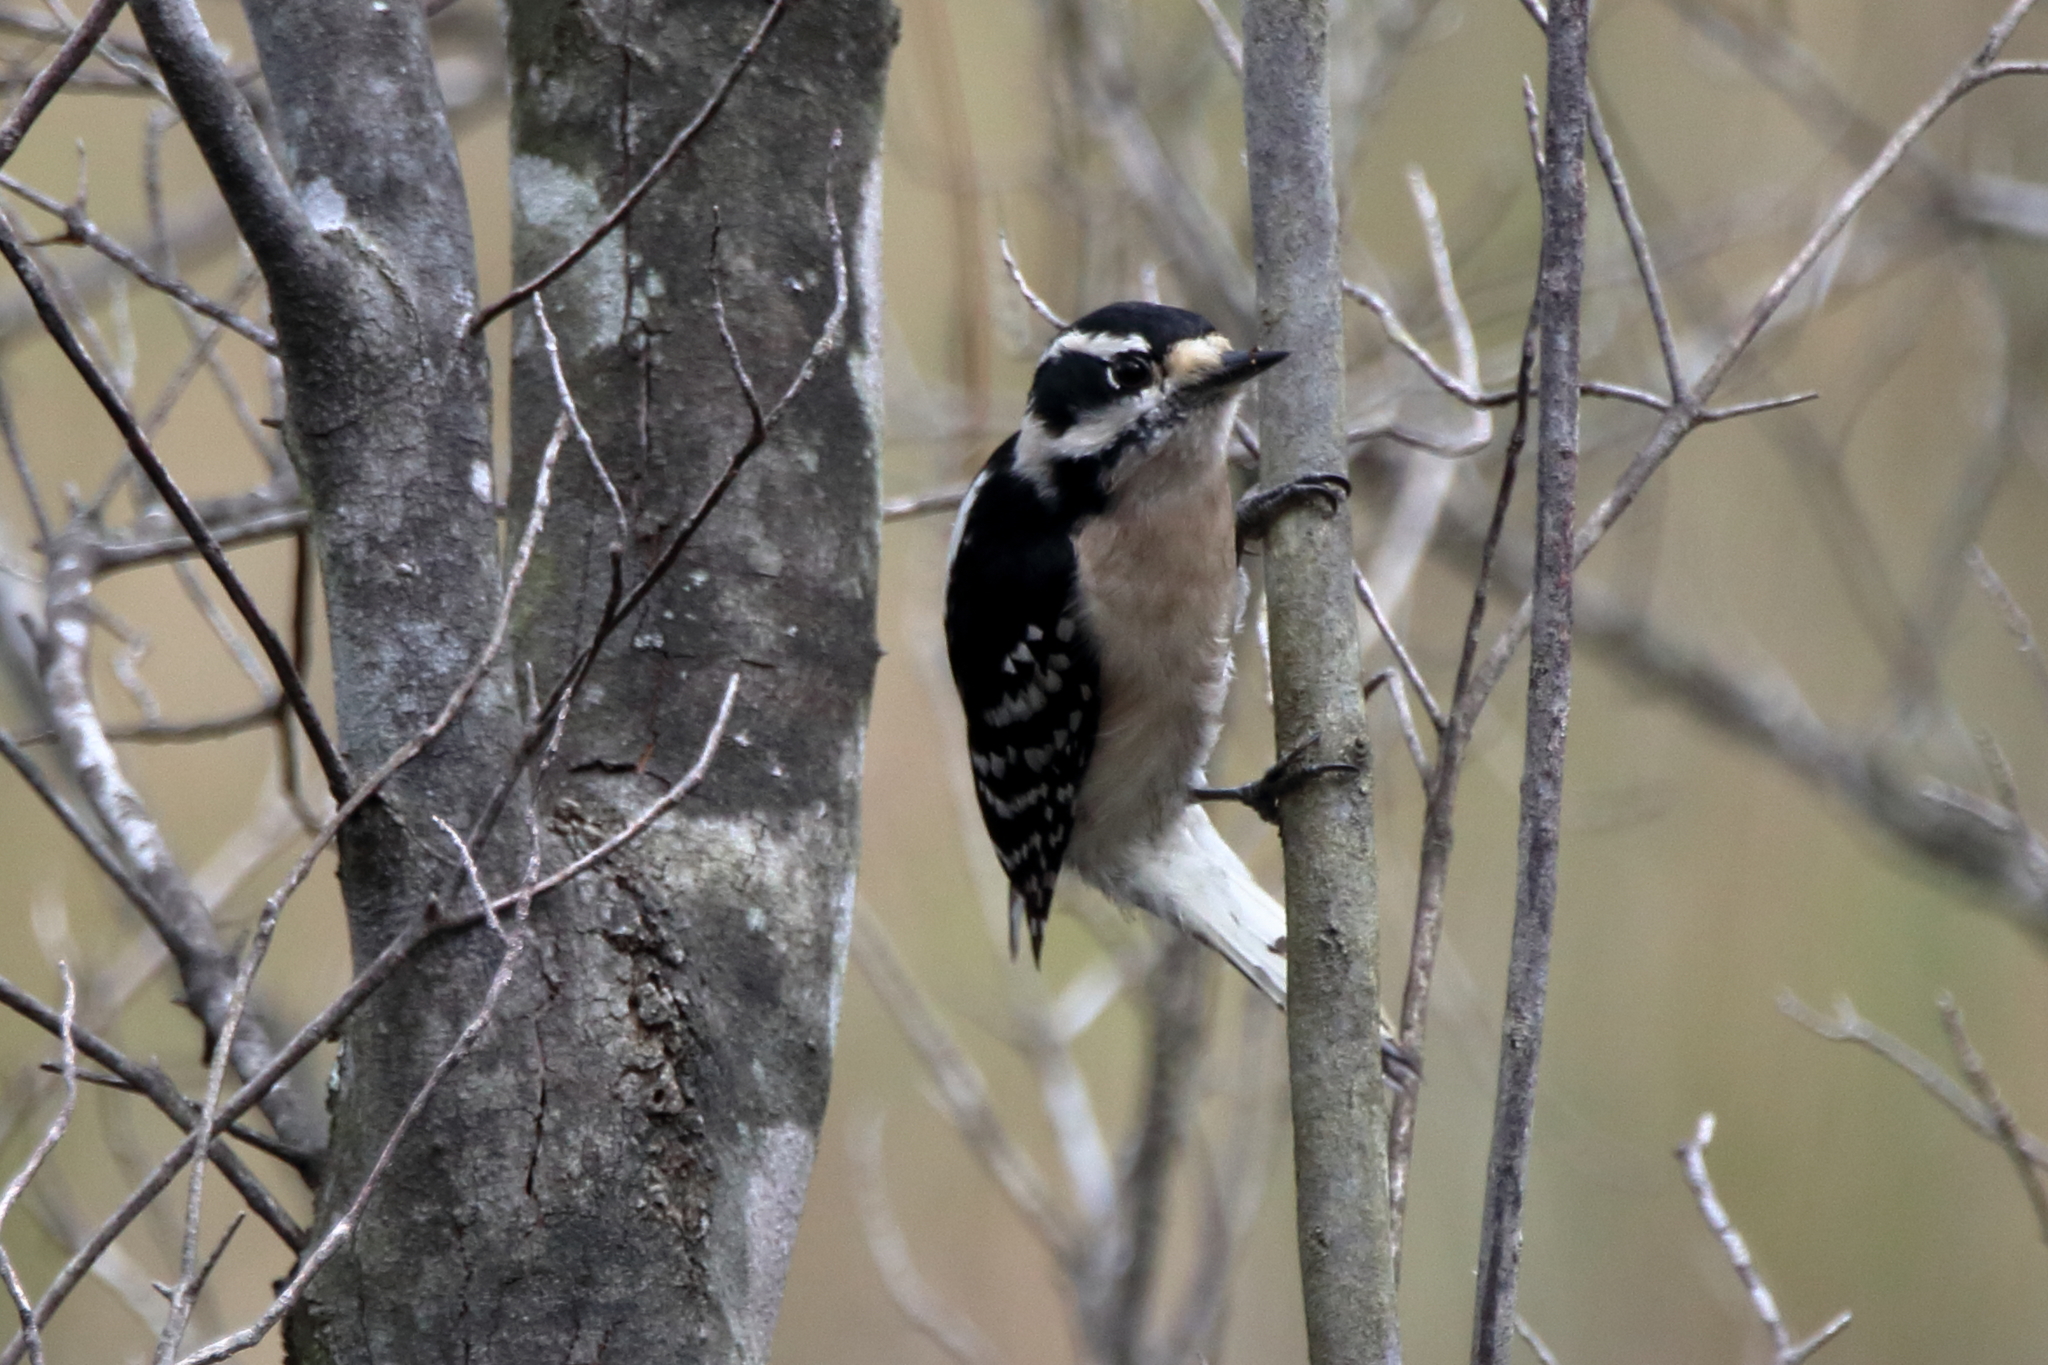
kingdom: Animalia
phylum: Chordata
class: Aves
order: Piciformes
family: Picidae
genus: Dryobates
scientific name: Dryobates pubescens
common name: Downy woodpecker
